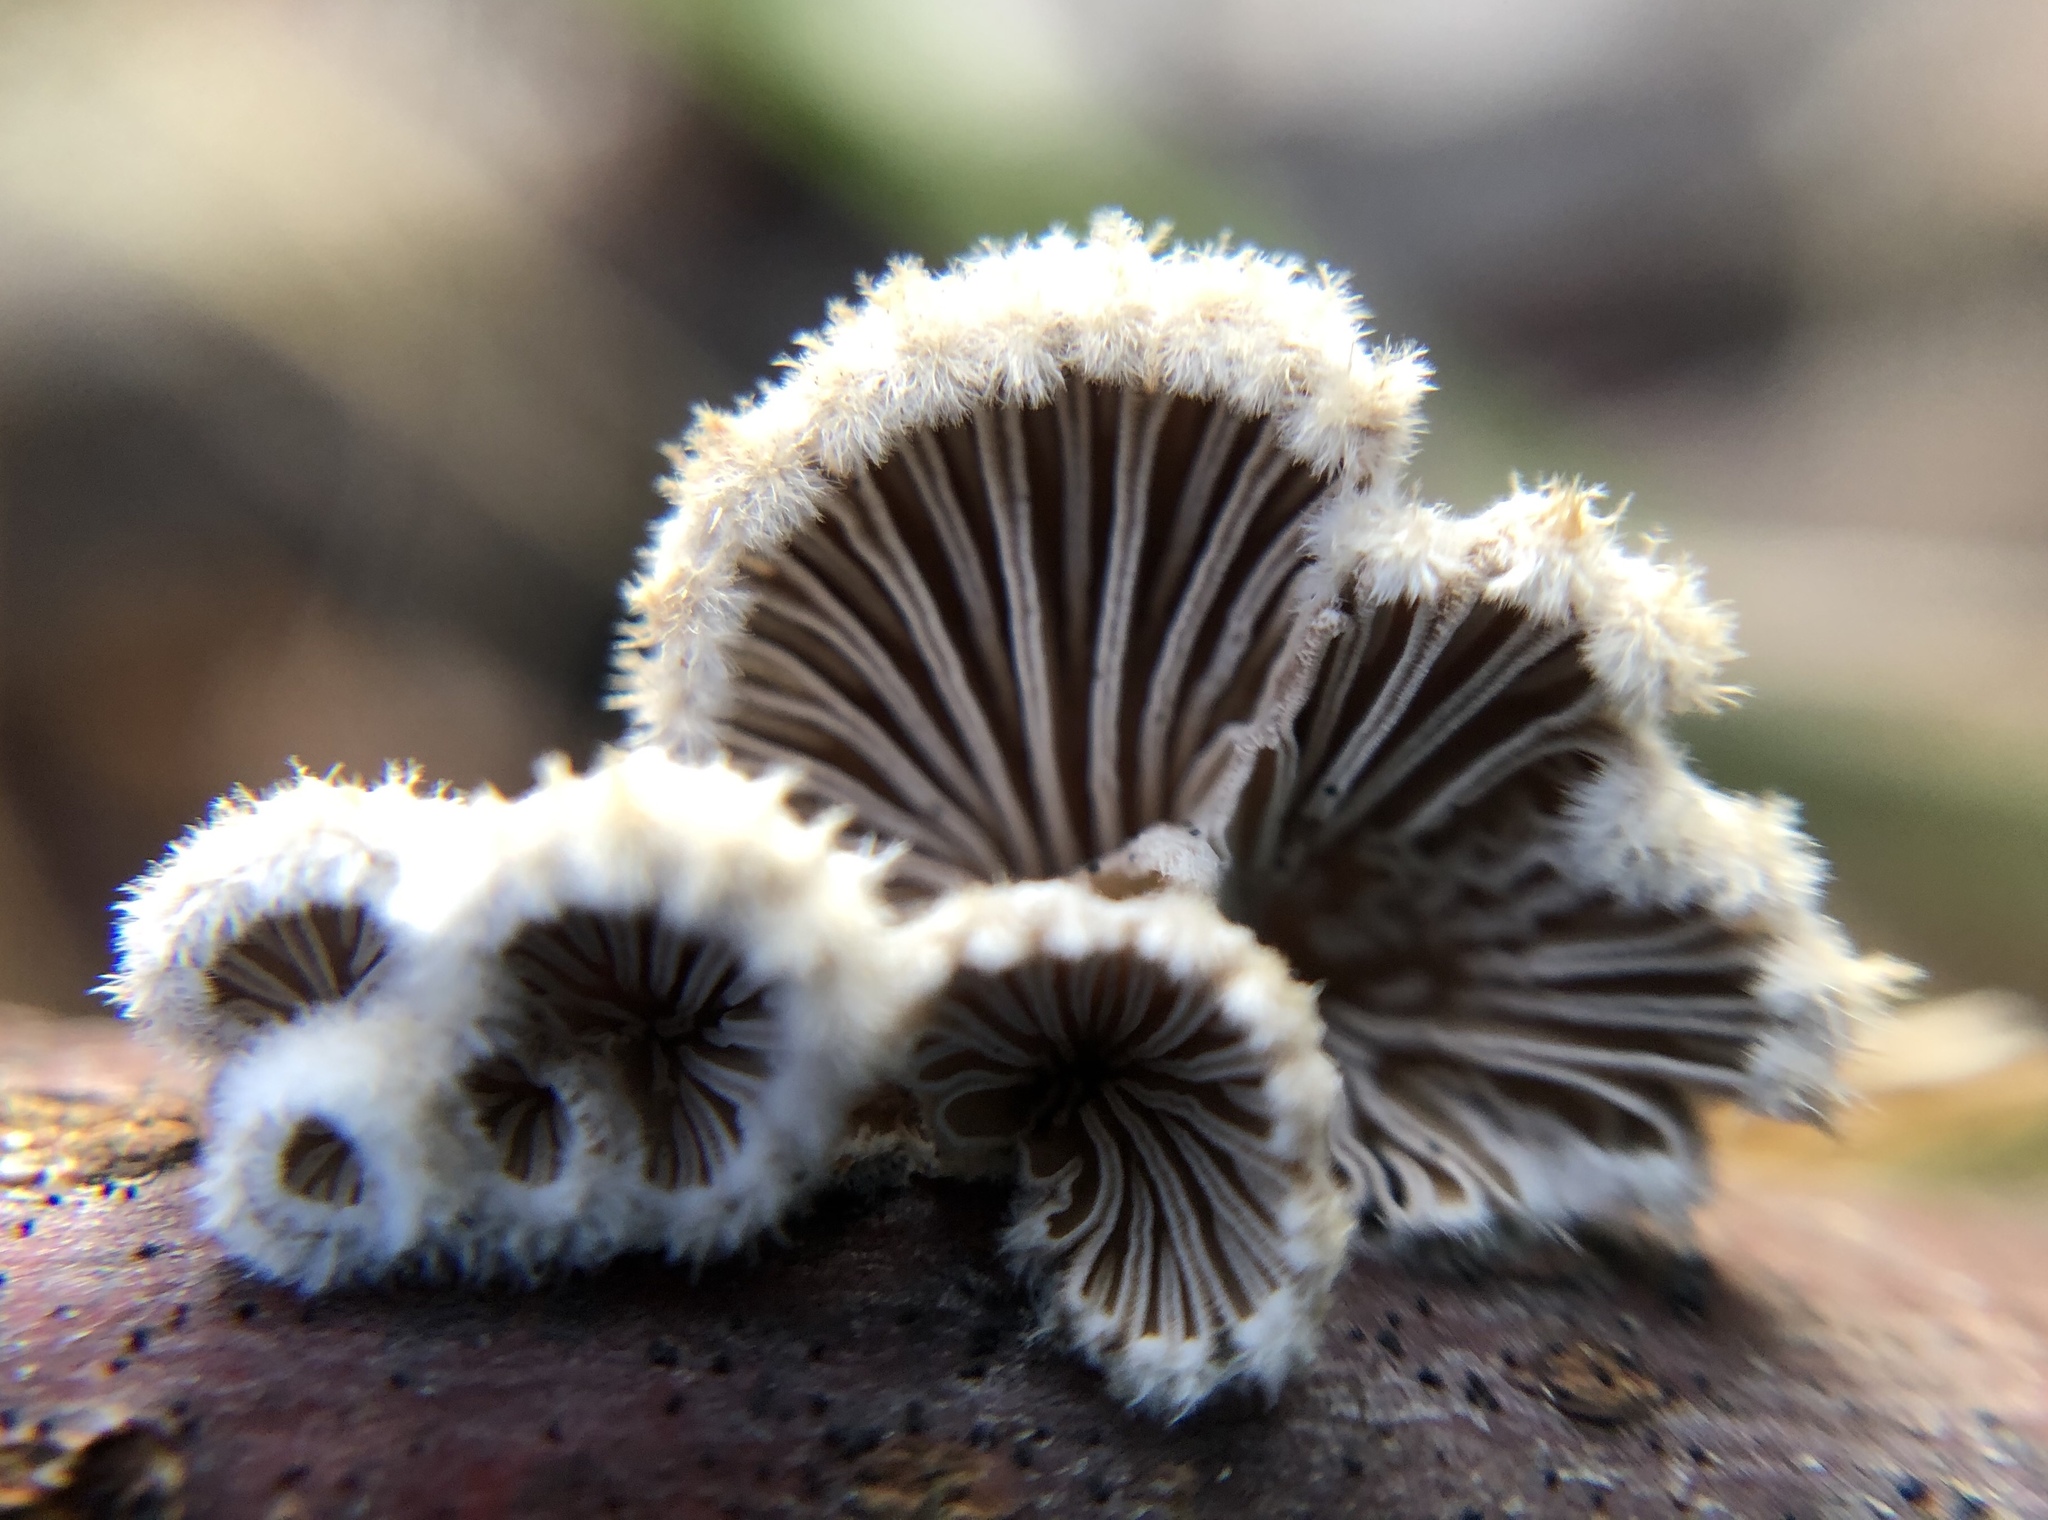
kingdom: Fungi
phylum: Basidiomycota
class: Agaricomycetes
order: Agaricales
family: Schizophyllaceae
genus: Schizophyllum
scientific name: Schizophyllum commune
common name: Common porecrust
